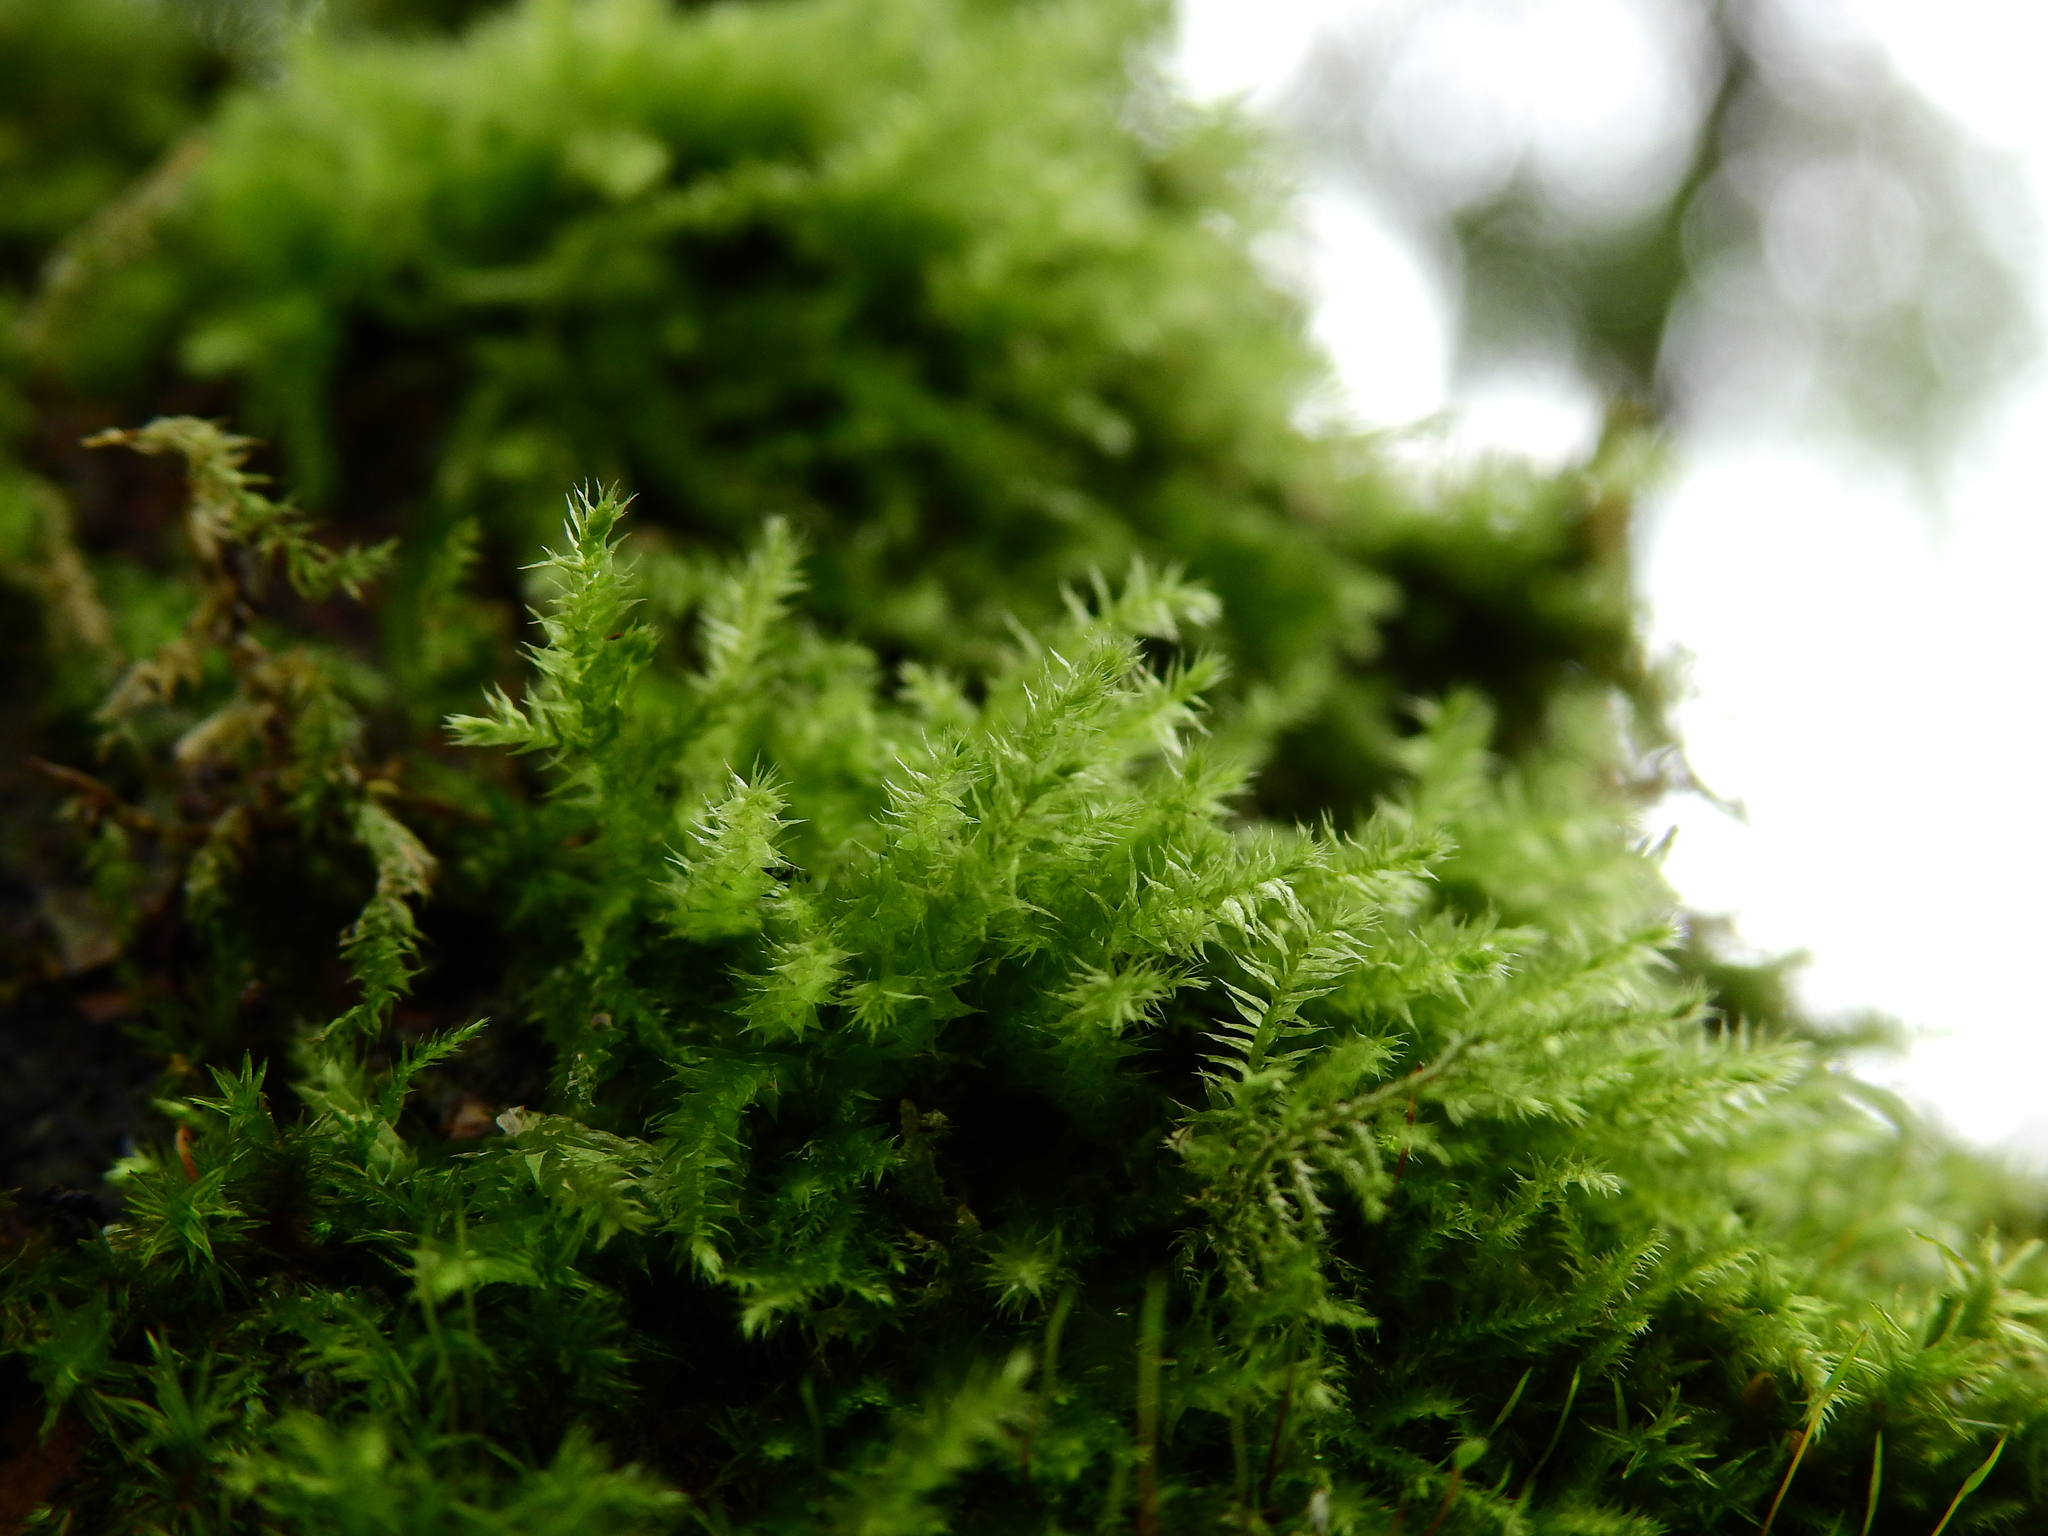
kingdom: Plantae
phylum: Bryophyta
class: Bryopsida
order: Hypnales
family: Brachytheciaceae
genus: Kindbergia
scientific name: Kindbergia praelonga
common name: Slender beaked moss
